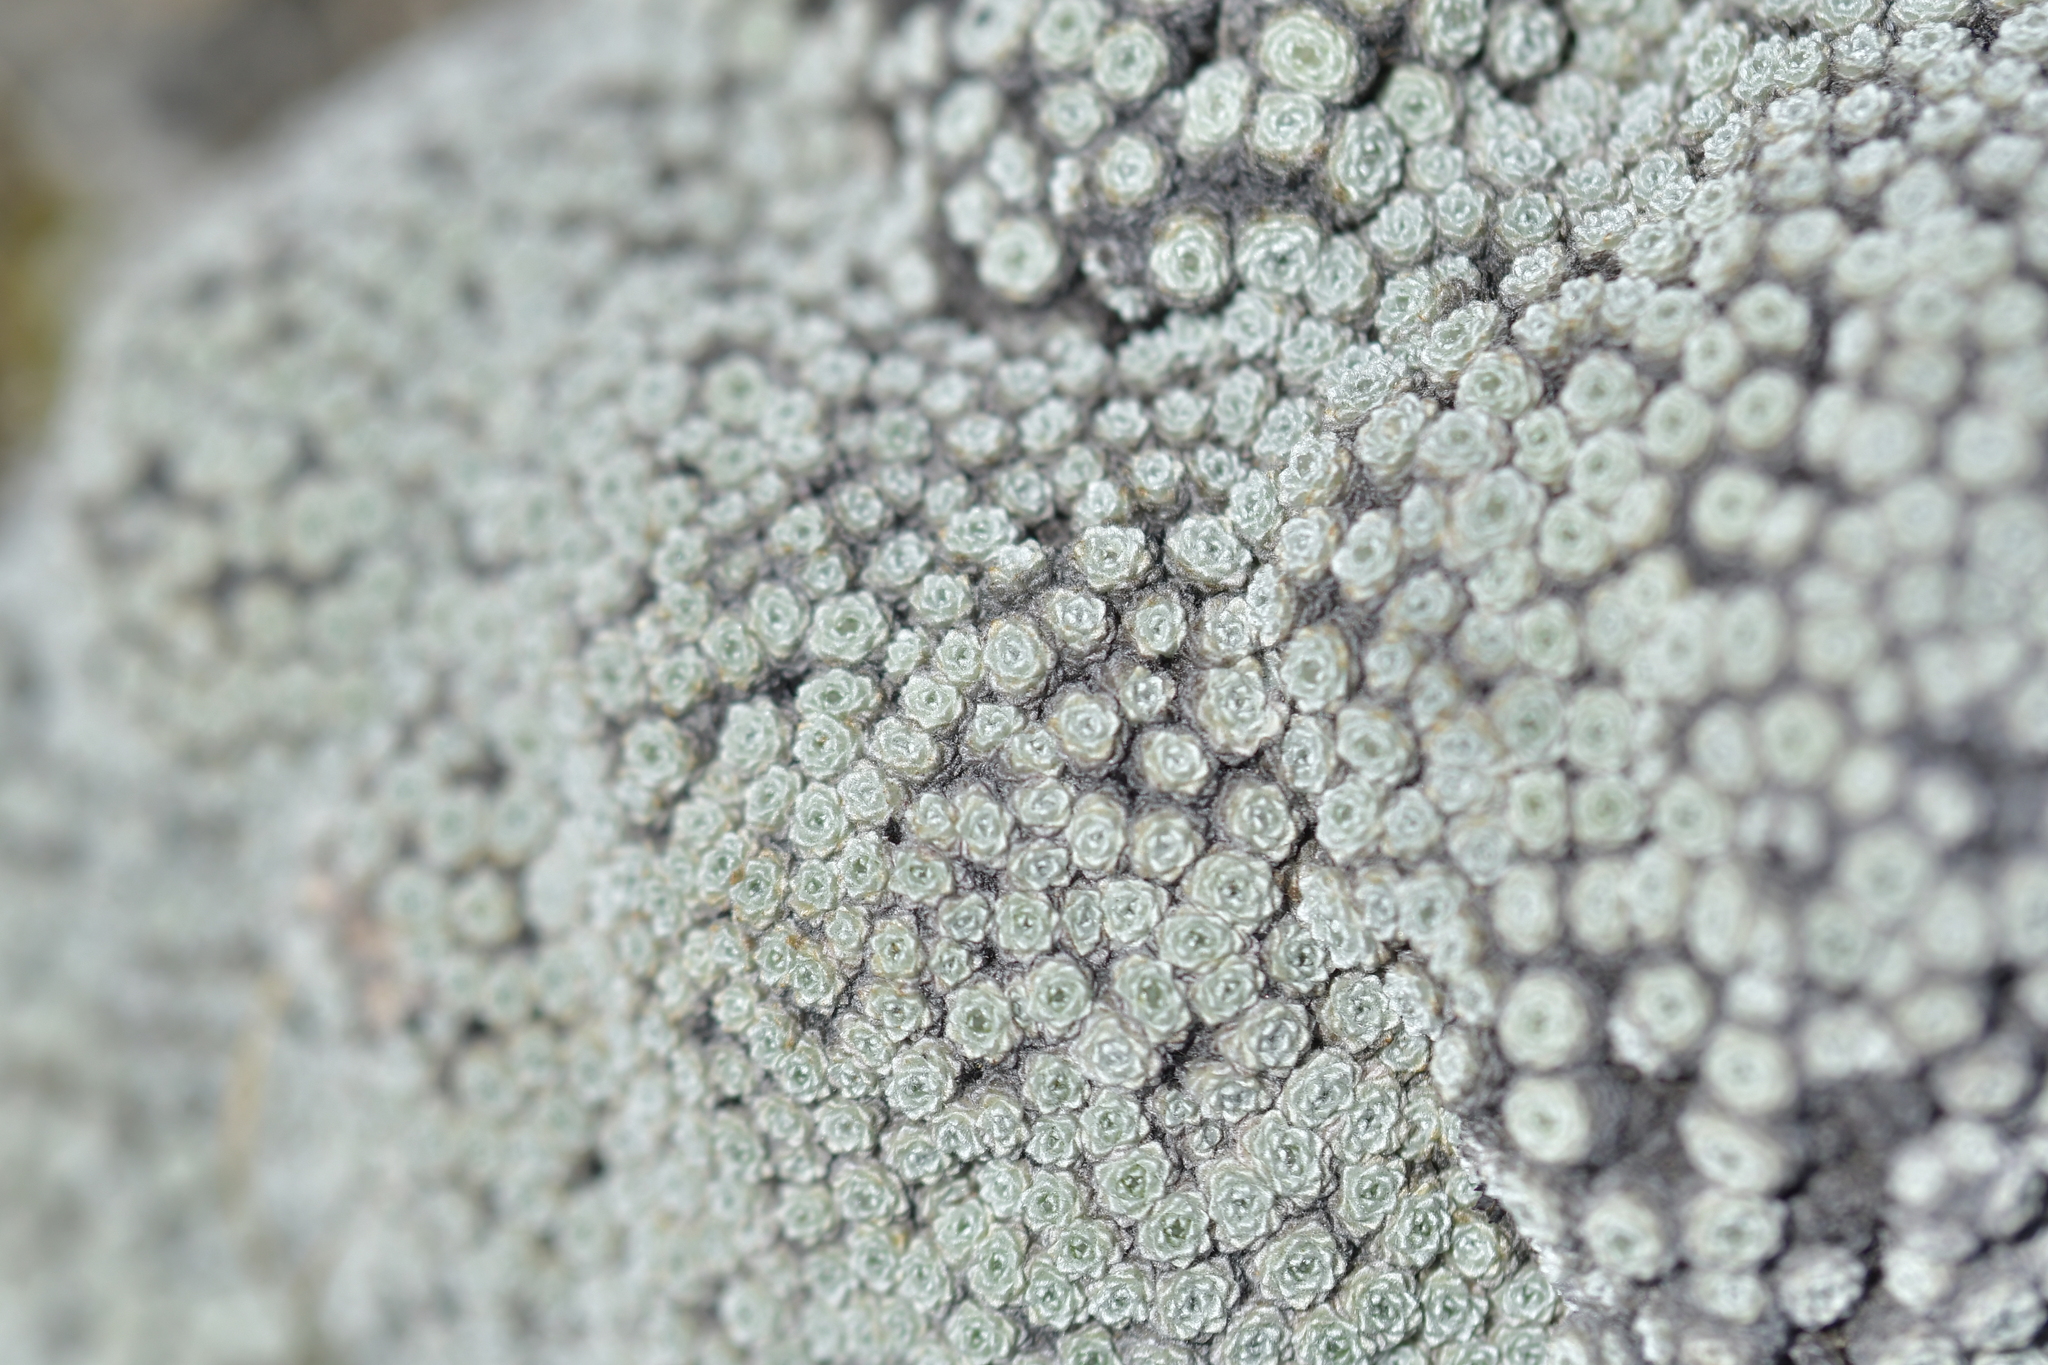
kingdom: Plantae
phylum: Tracheophyta
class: Magnoliopsida
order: Asterales
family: Asteraceae
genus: Raoulia
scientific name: Raoulia bryoides
